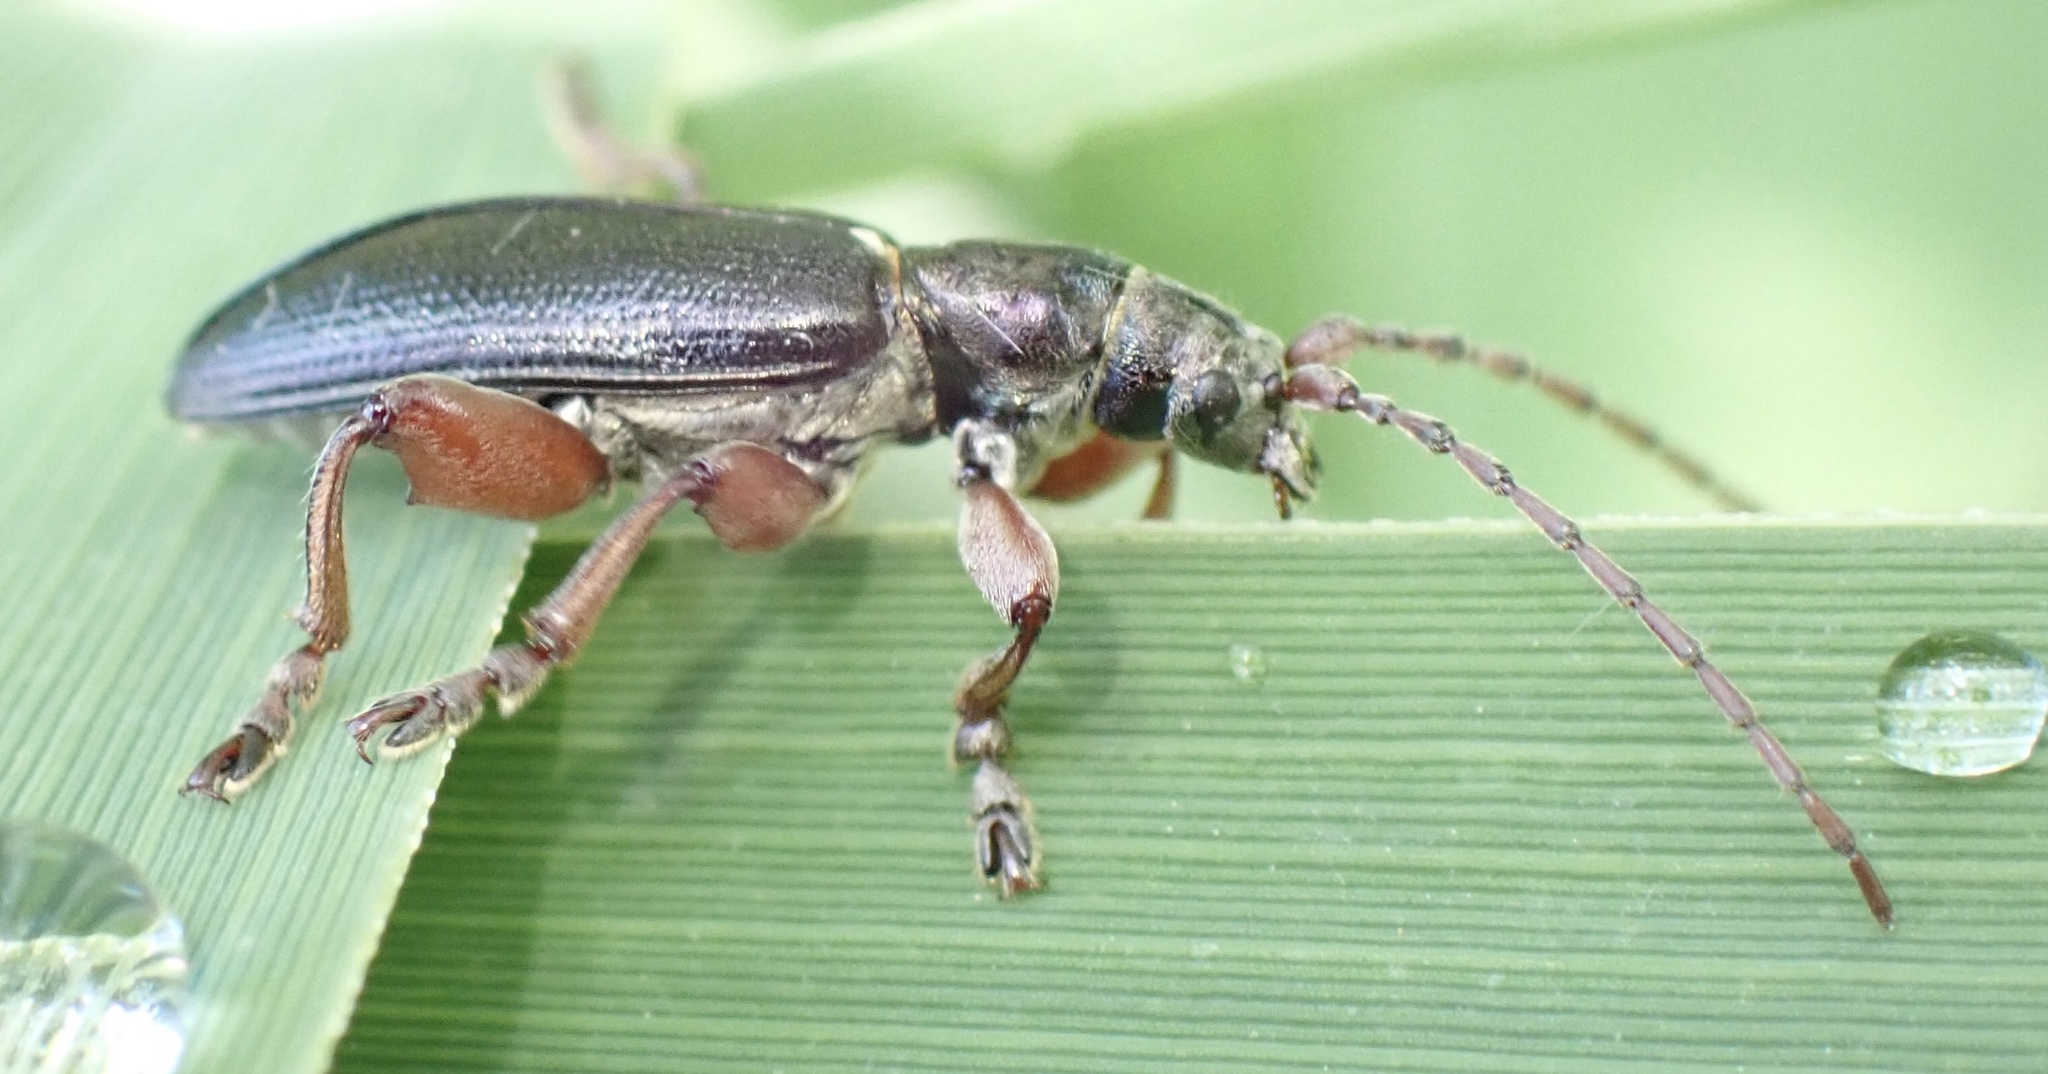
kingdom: Animalia
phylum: Arthropoda
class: Insecta
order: Coleoptera
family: Chrysomelidae
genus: Plateumaris
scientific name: Plateumaris braccata
